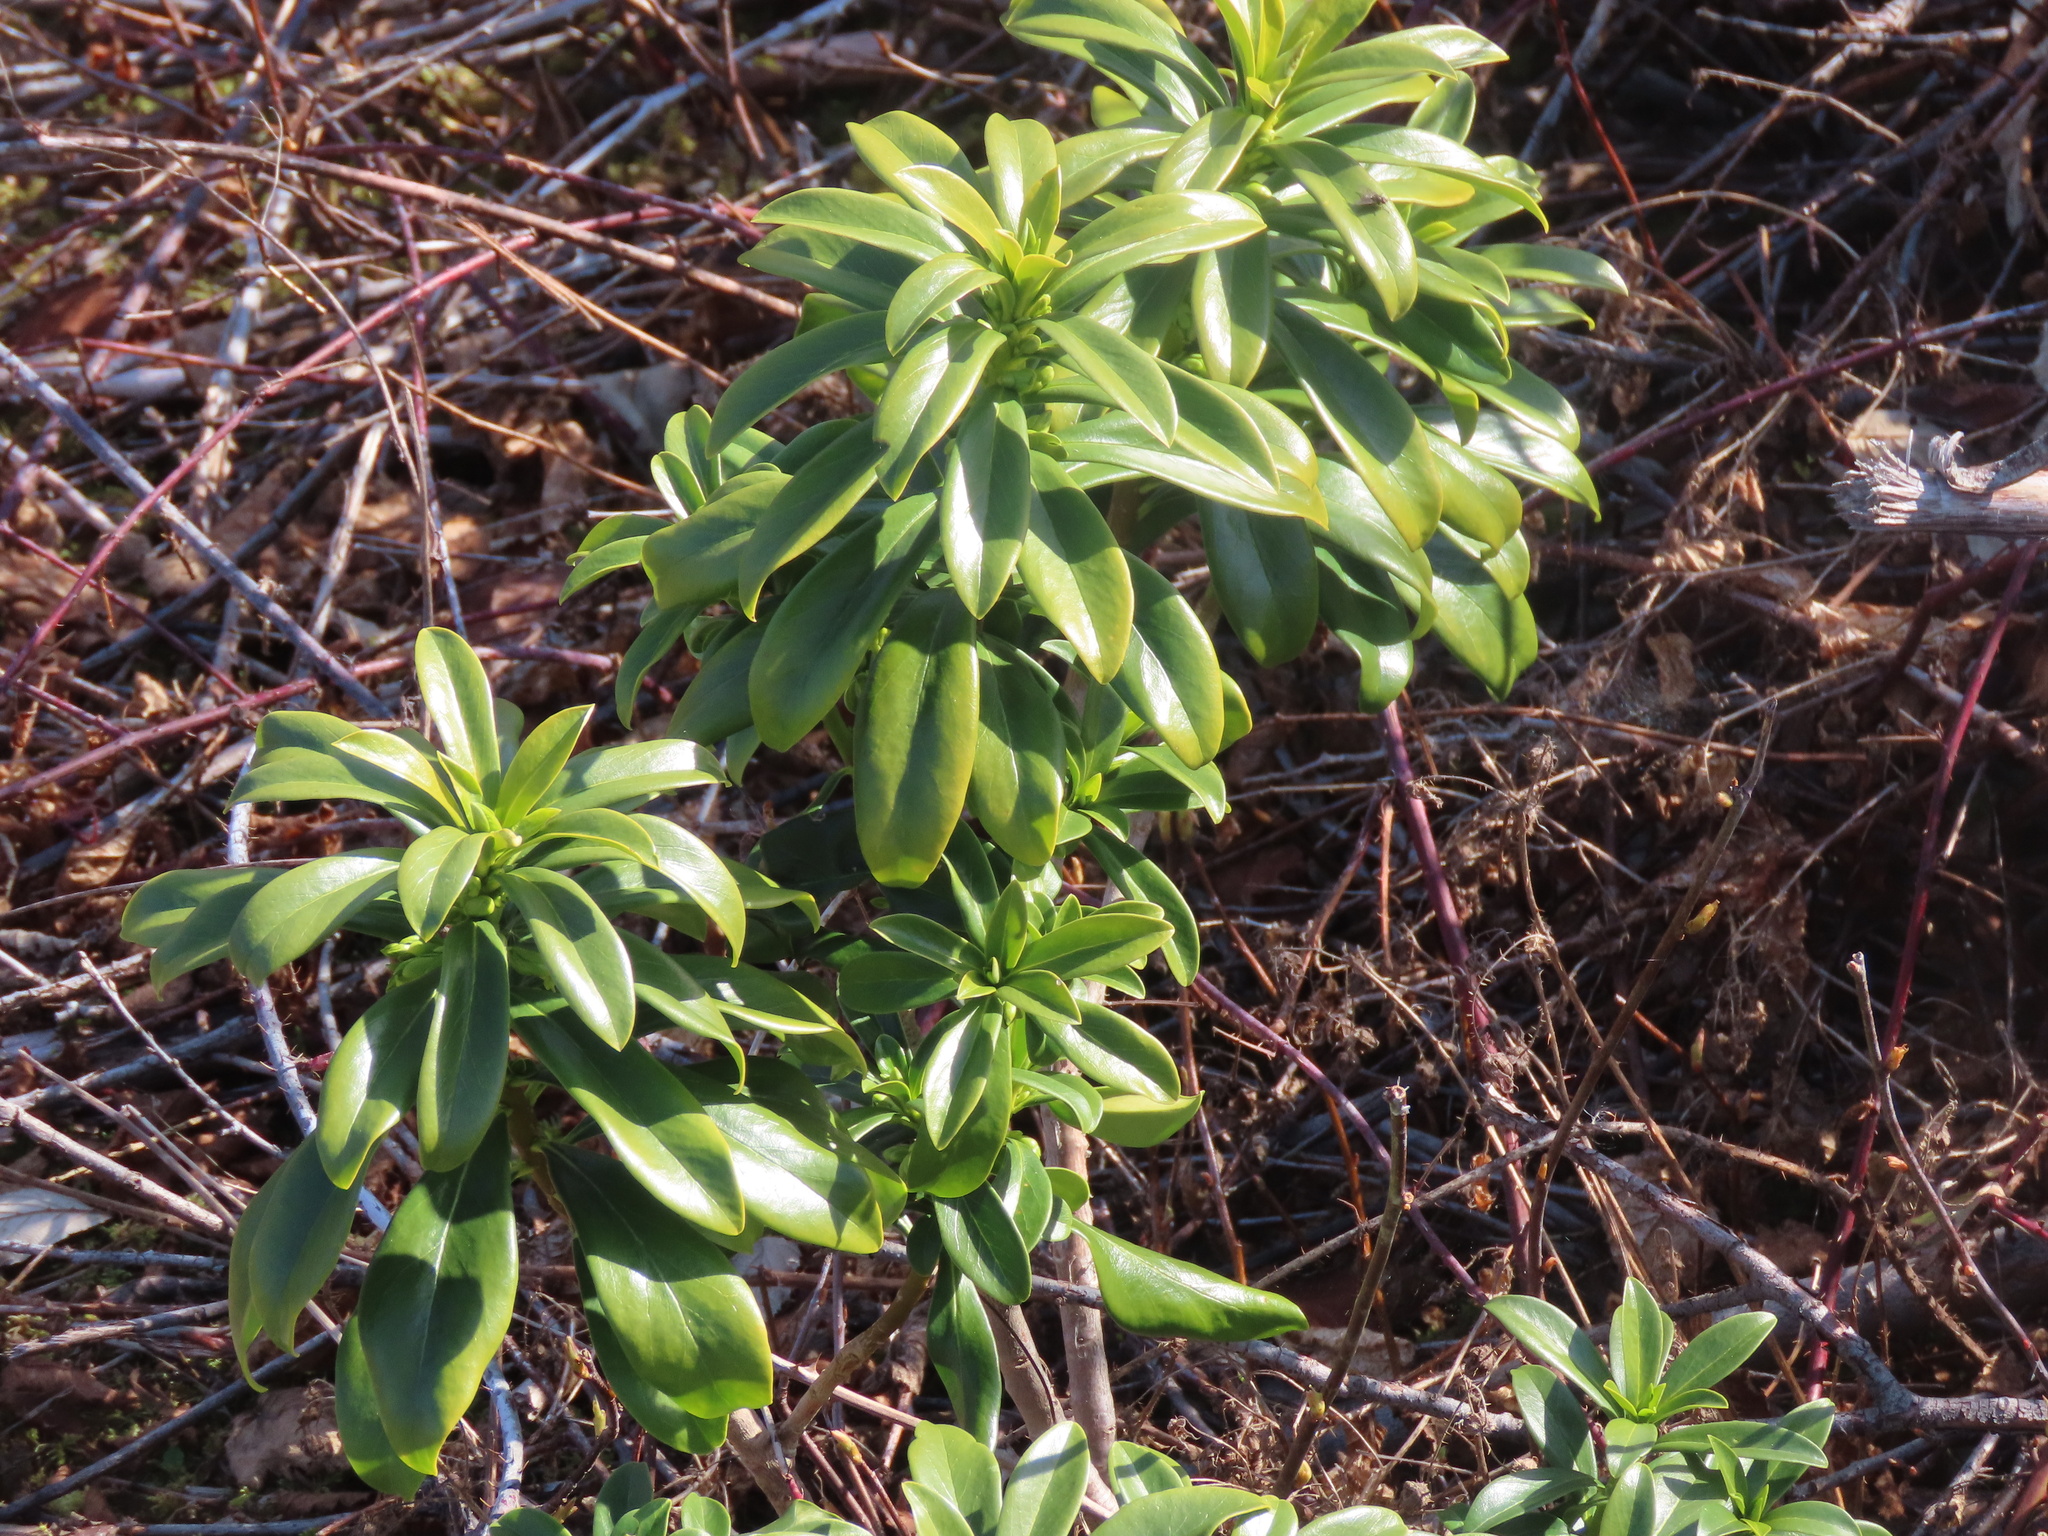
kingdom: Plantae
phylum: Tracheophyta
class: Magnoliopsida
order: Malvales
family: Thymelaeaceae
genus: Daphne
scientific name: Daphne laureola
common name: Spurge-laurel
